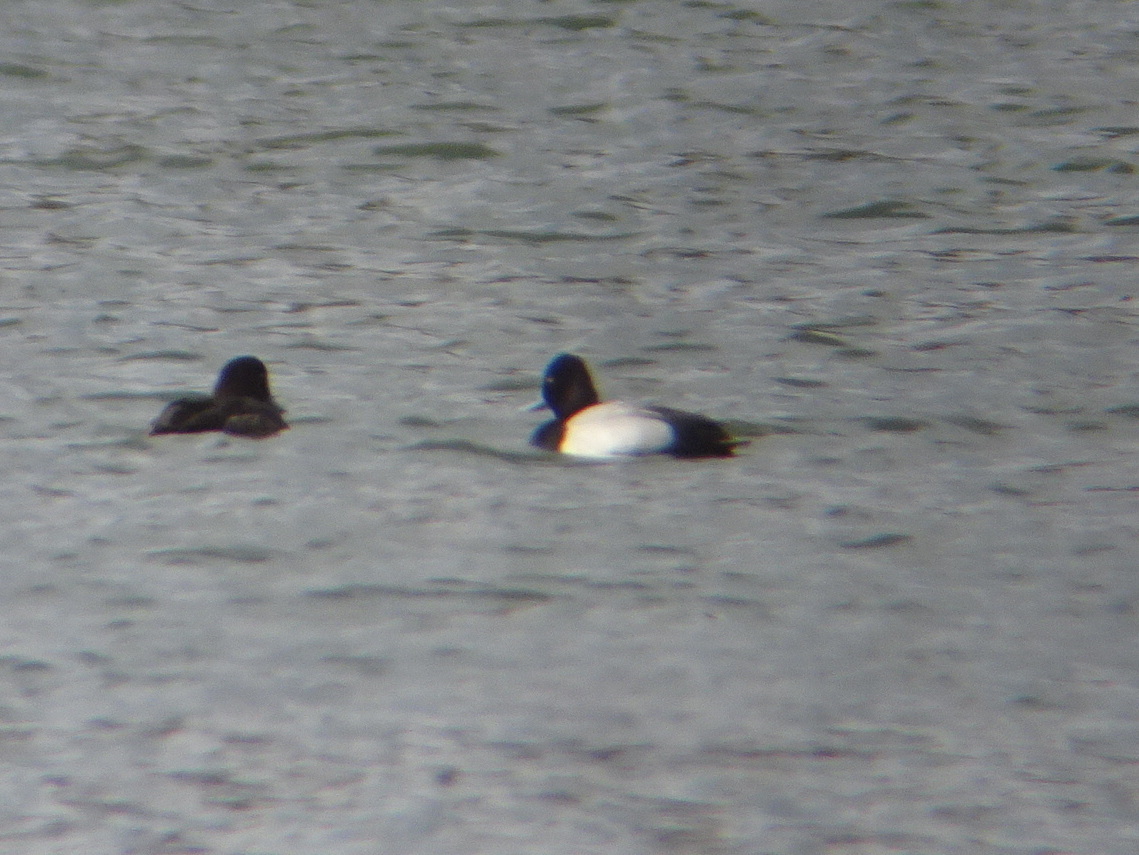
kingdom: Animalia
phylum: Chordata
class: Aves
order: Anseriformes
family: Anatidae
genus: Aythya
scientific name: Aythya affinis
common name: Lesser scaup
